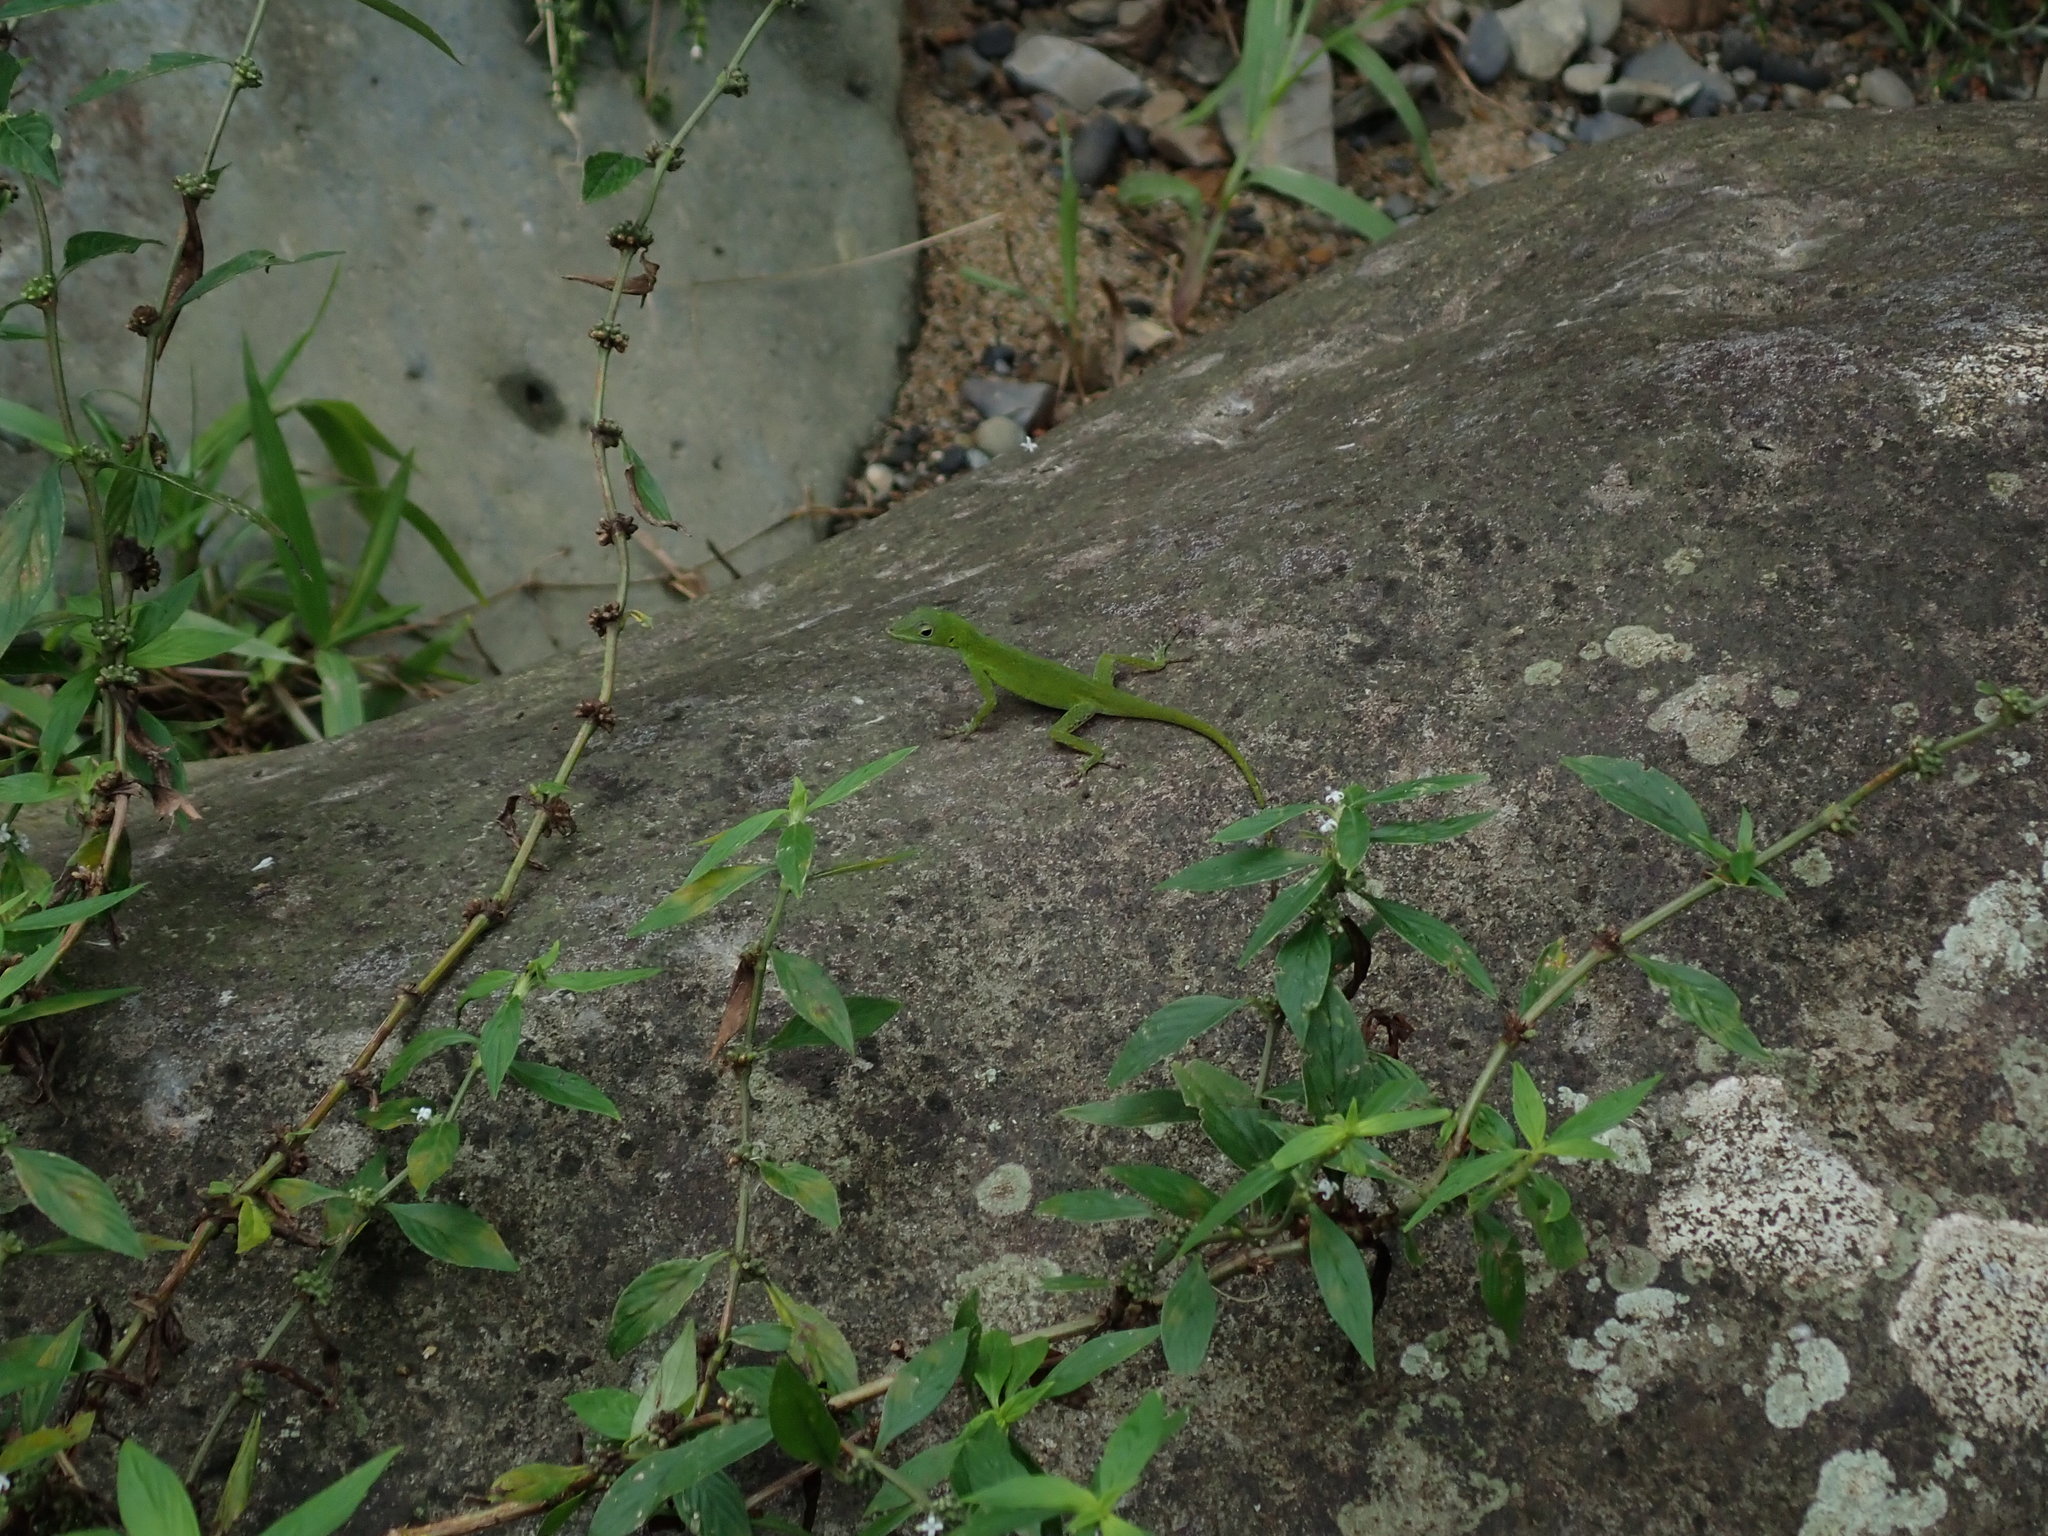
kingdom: Animalia
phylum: Chordata
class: Squamata
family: Dactyloidae
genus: Anolis
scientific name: Anolis evermanni
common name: Emerald anole
